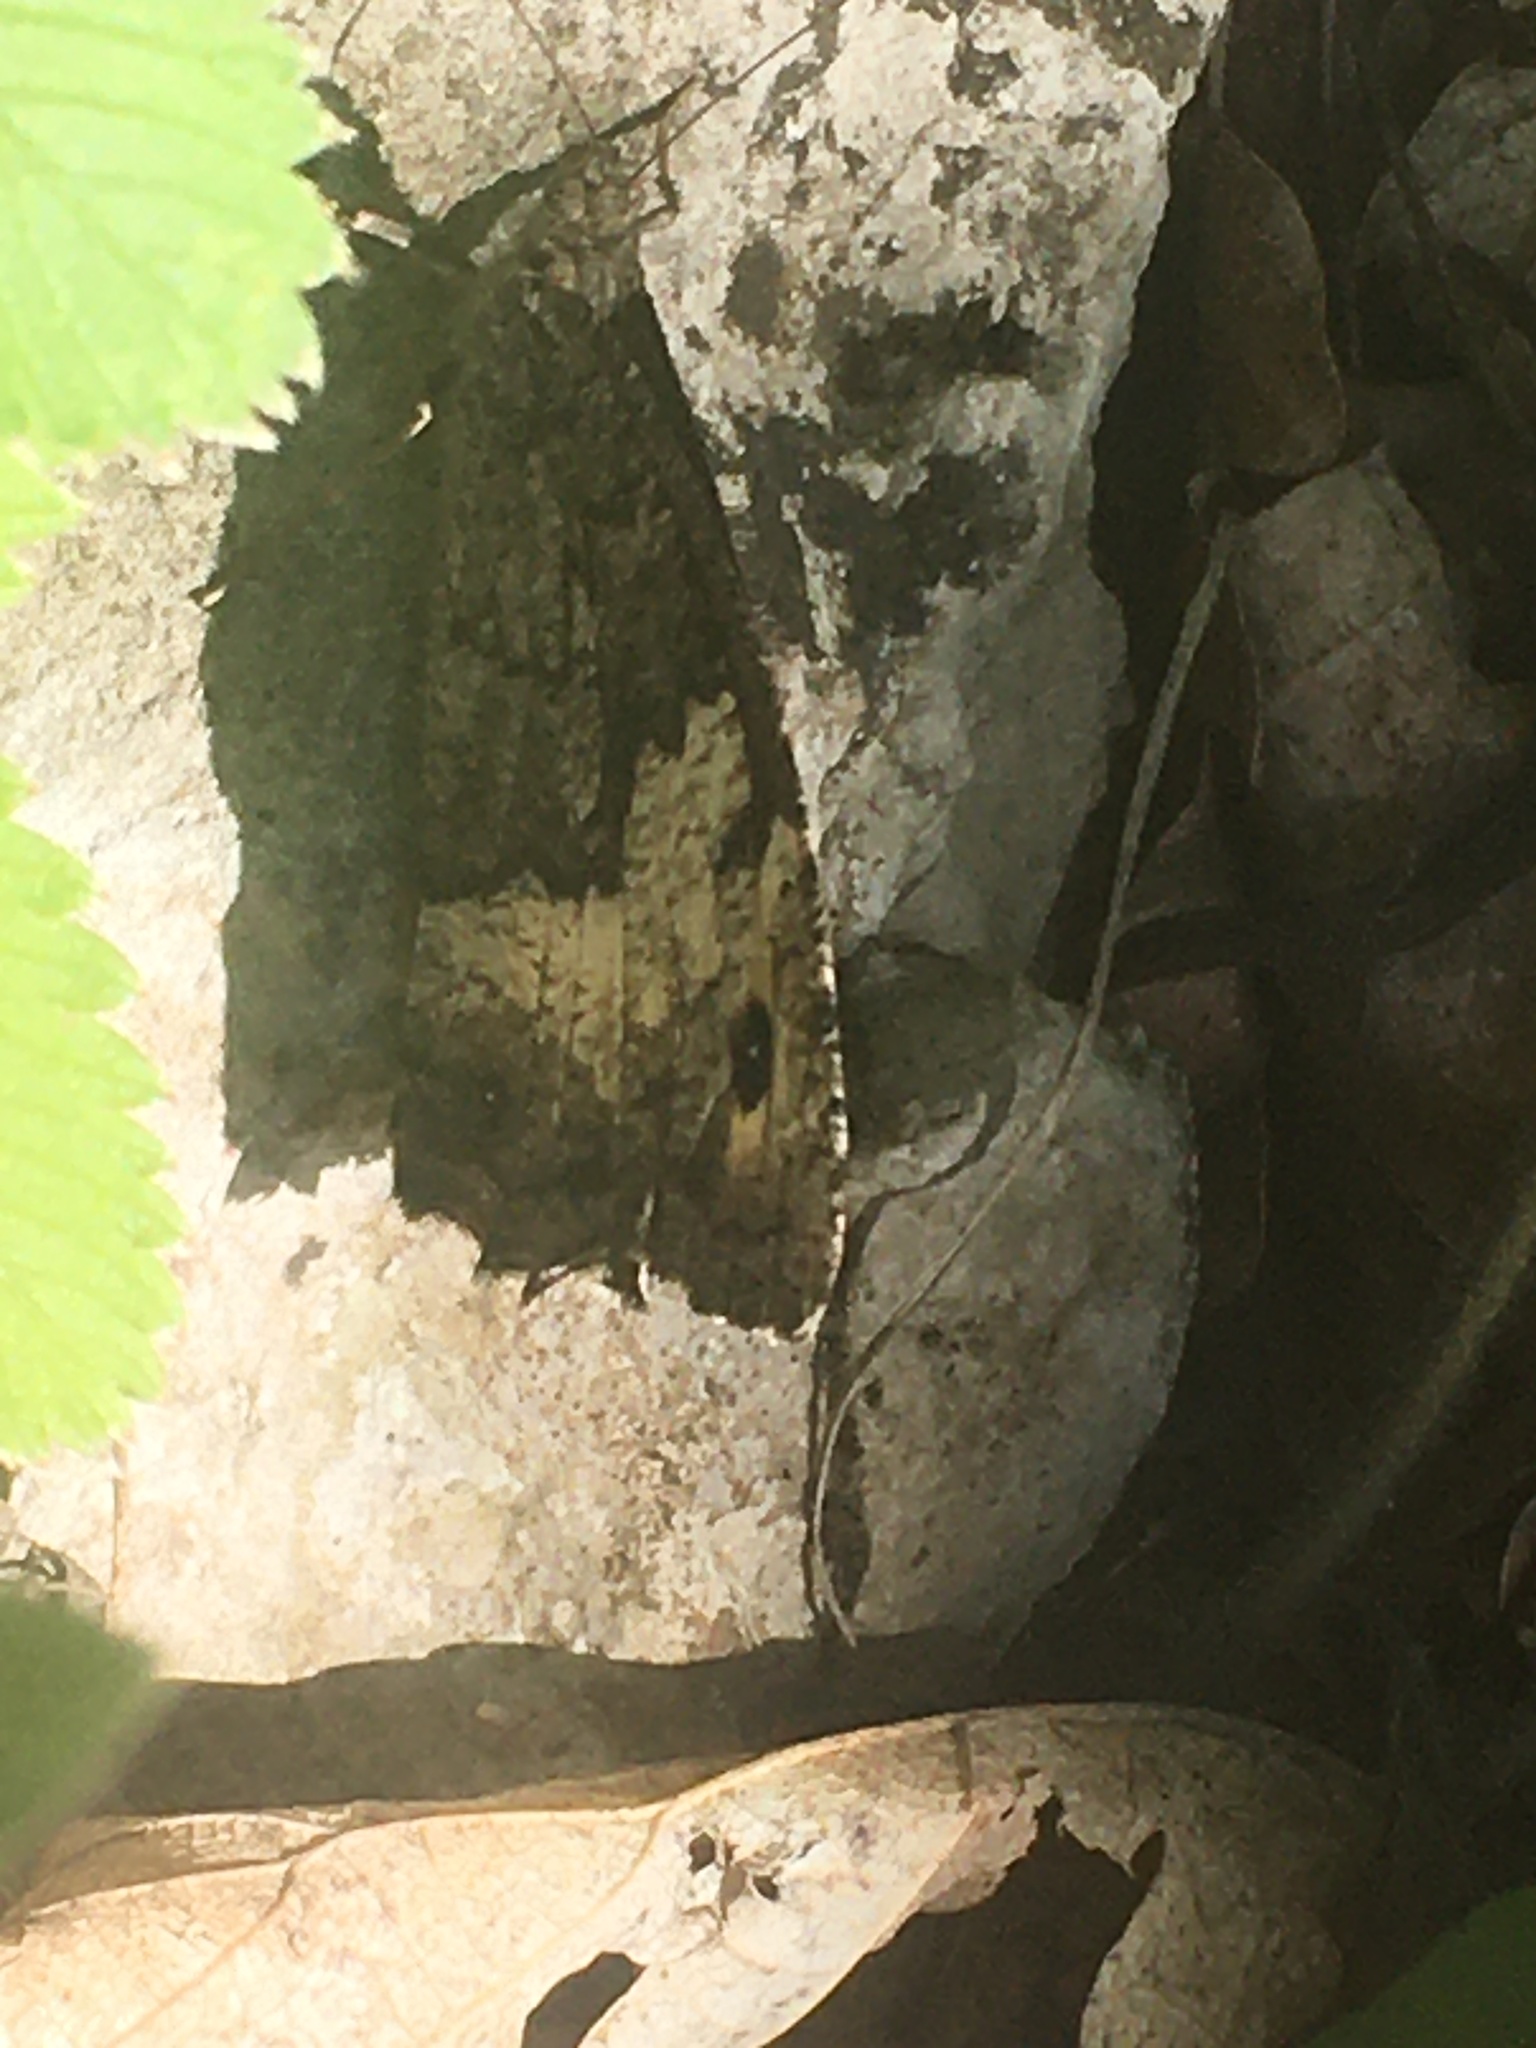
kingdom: Animalia
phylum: Arthropoda
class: Insecta
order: Lepidoptera
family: Nymphalidae
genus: Hipparchia
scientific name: Hipparchia fagi
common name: Woodland grayling
